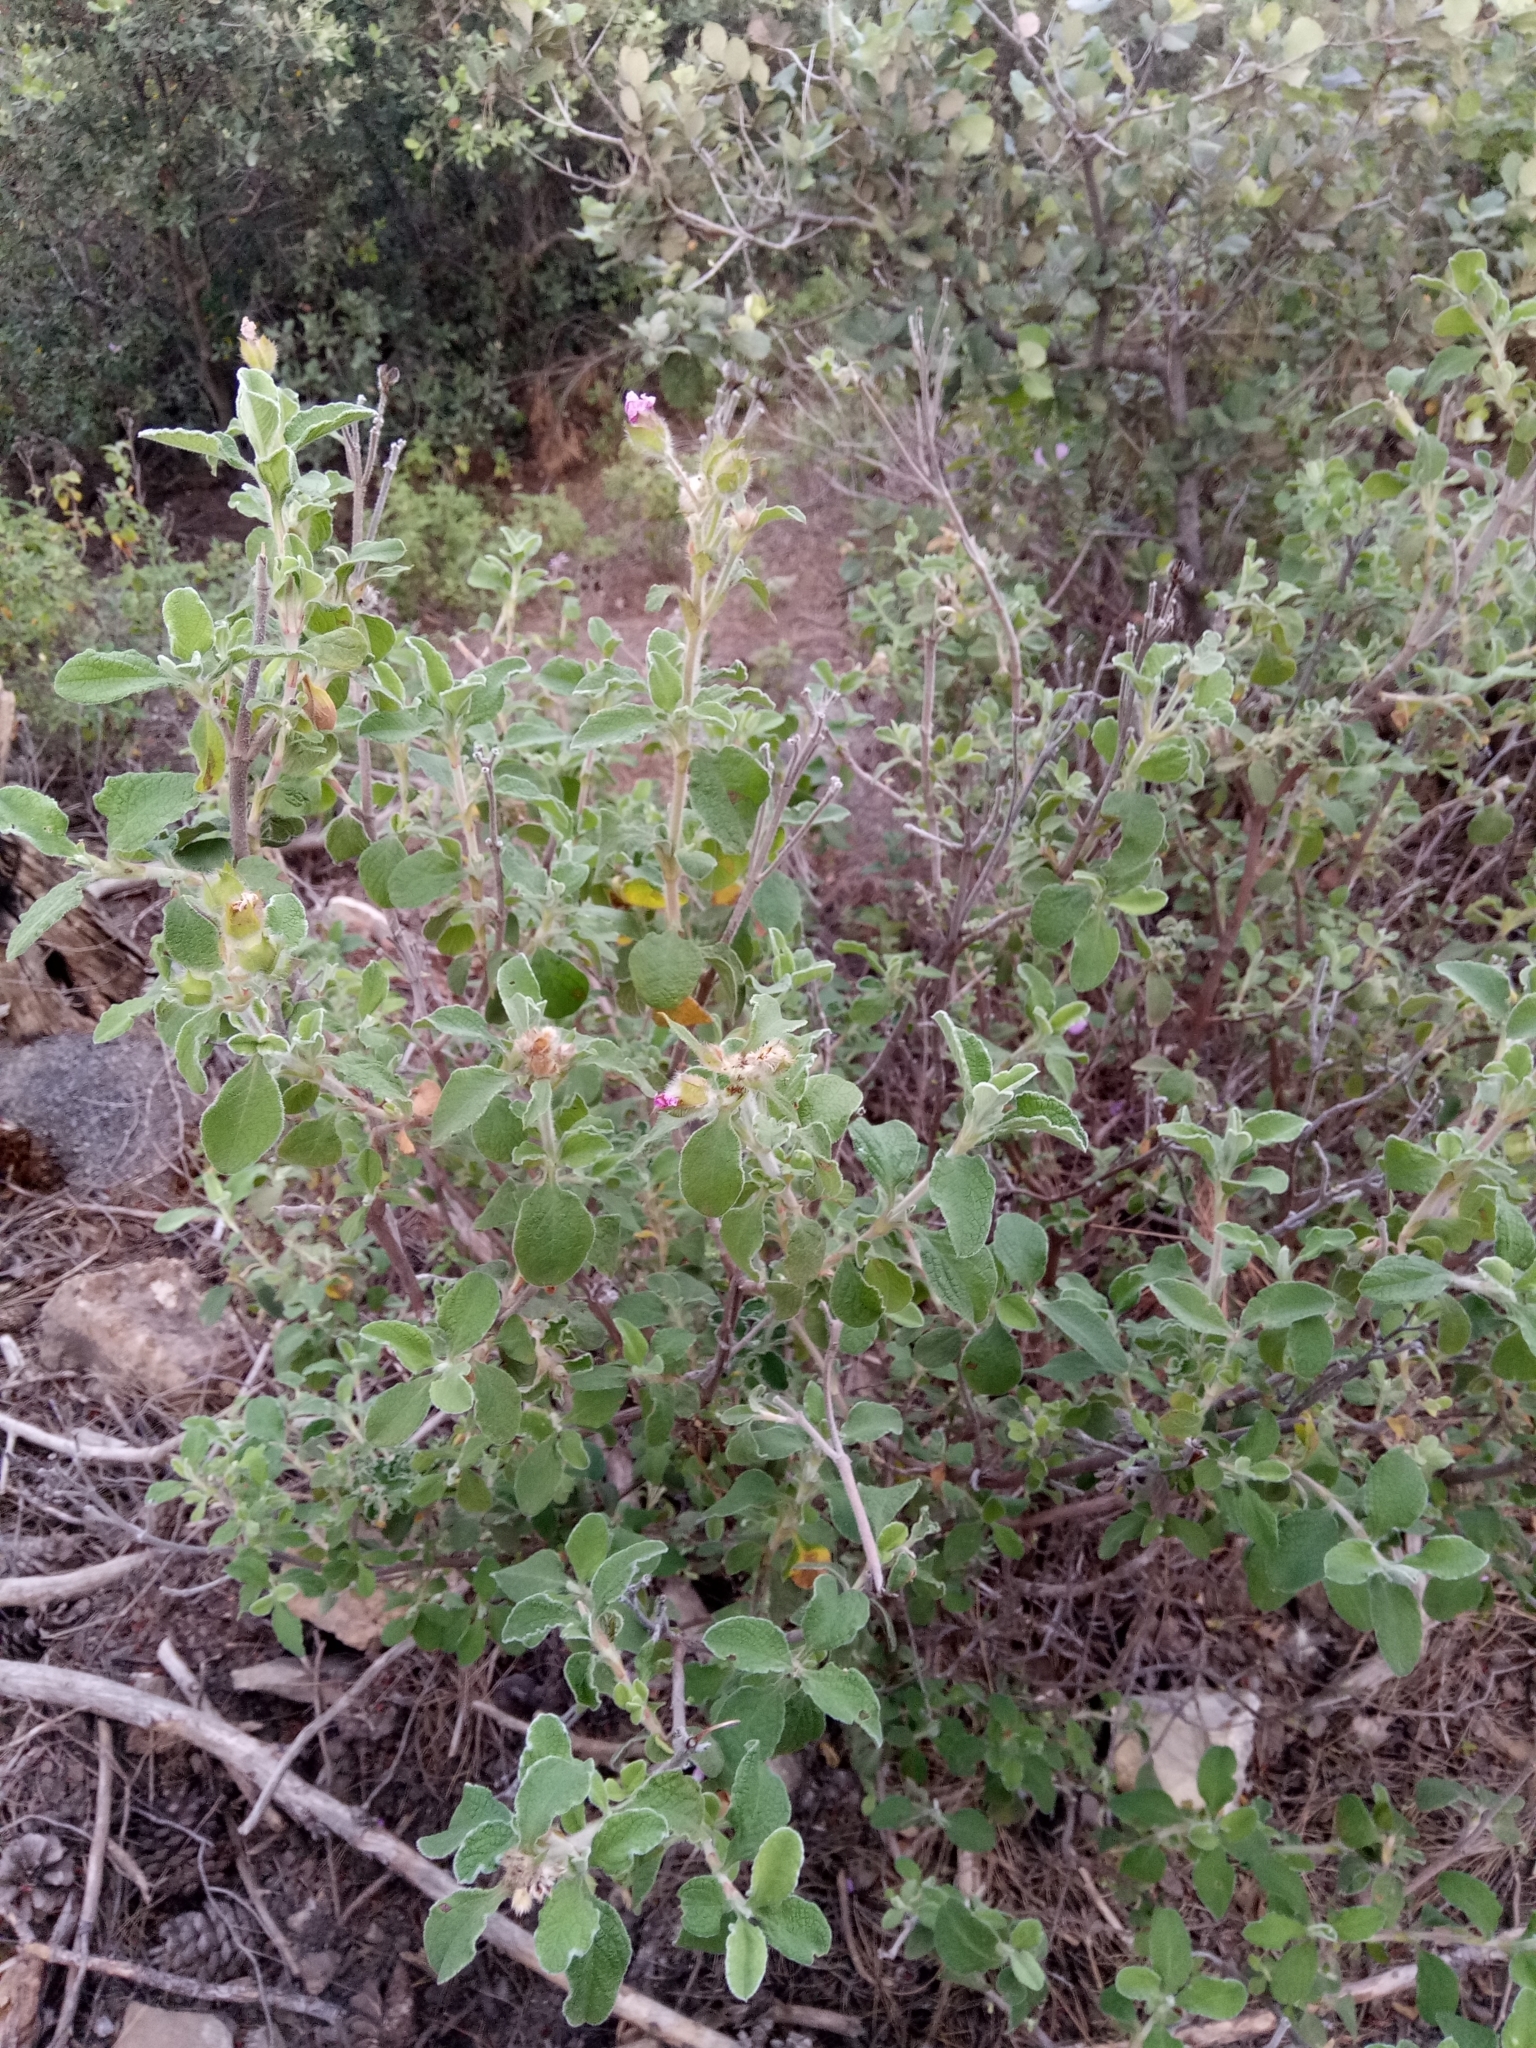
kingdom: Plantae
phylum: Tracheophyta
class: Magnoliopsida
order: Malvales
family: Cistaceae
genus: Cistus
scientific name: Cistus creticus
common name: Cretan rockrose
